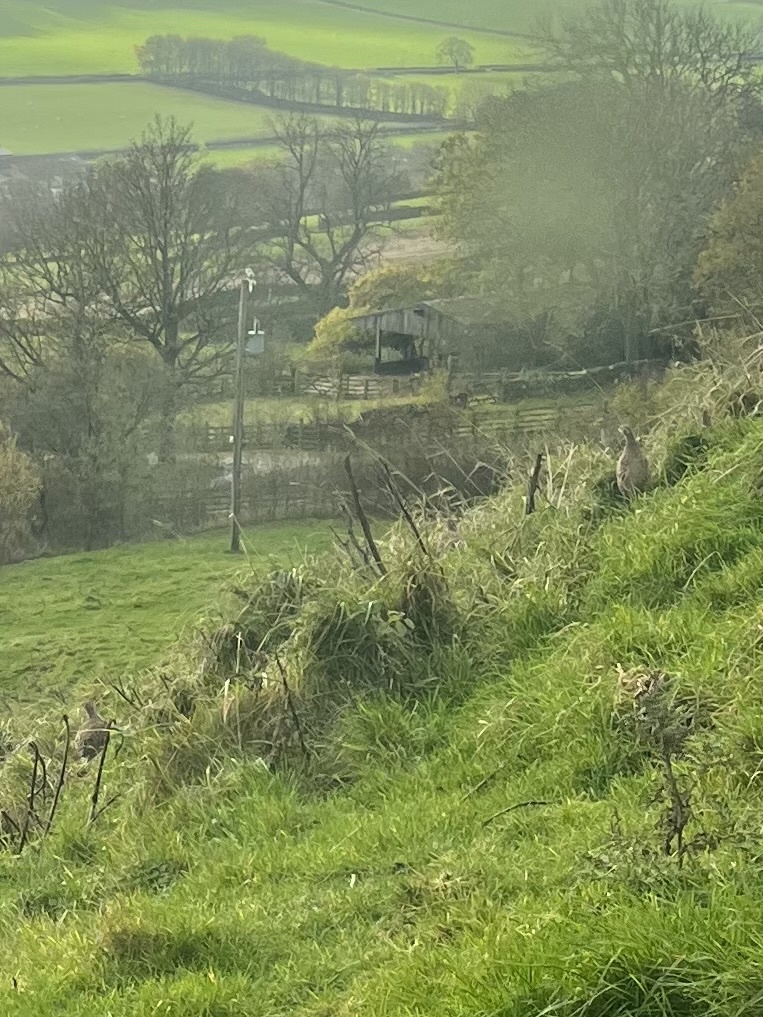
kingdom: Animalia
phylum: Chordata
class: Aves
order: Galliformes
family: Phasianidae
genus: Perdix
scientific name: Perdix perdix
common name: Grey partridge
